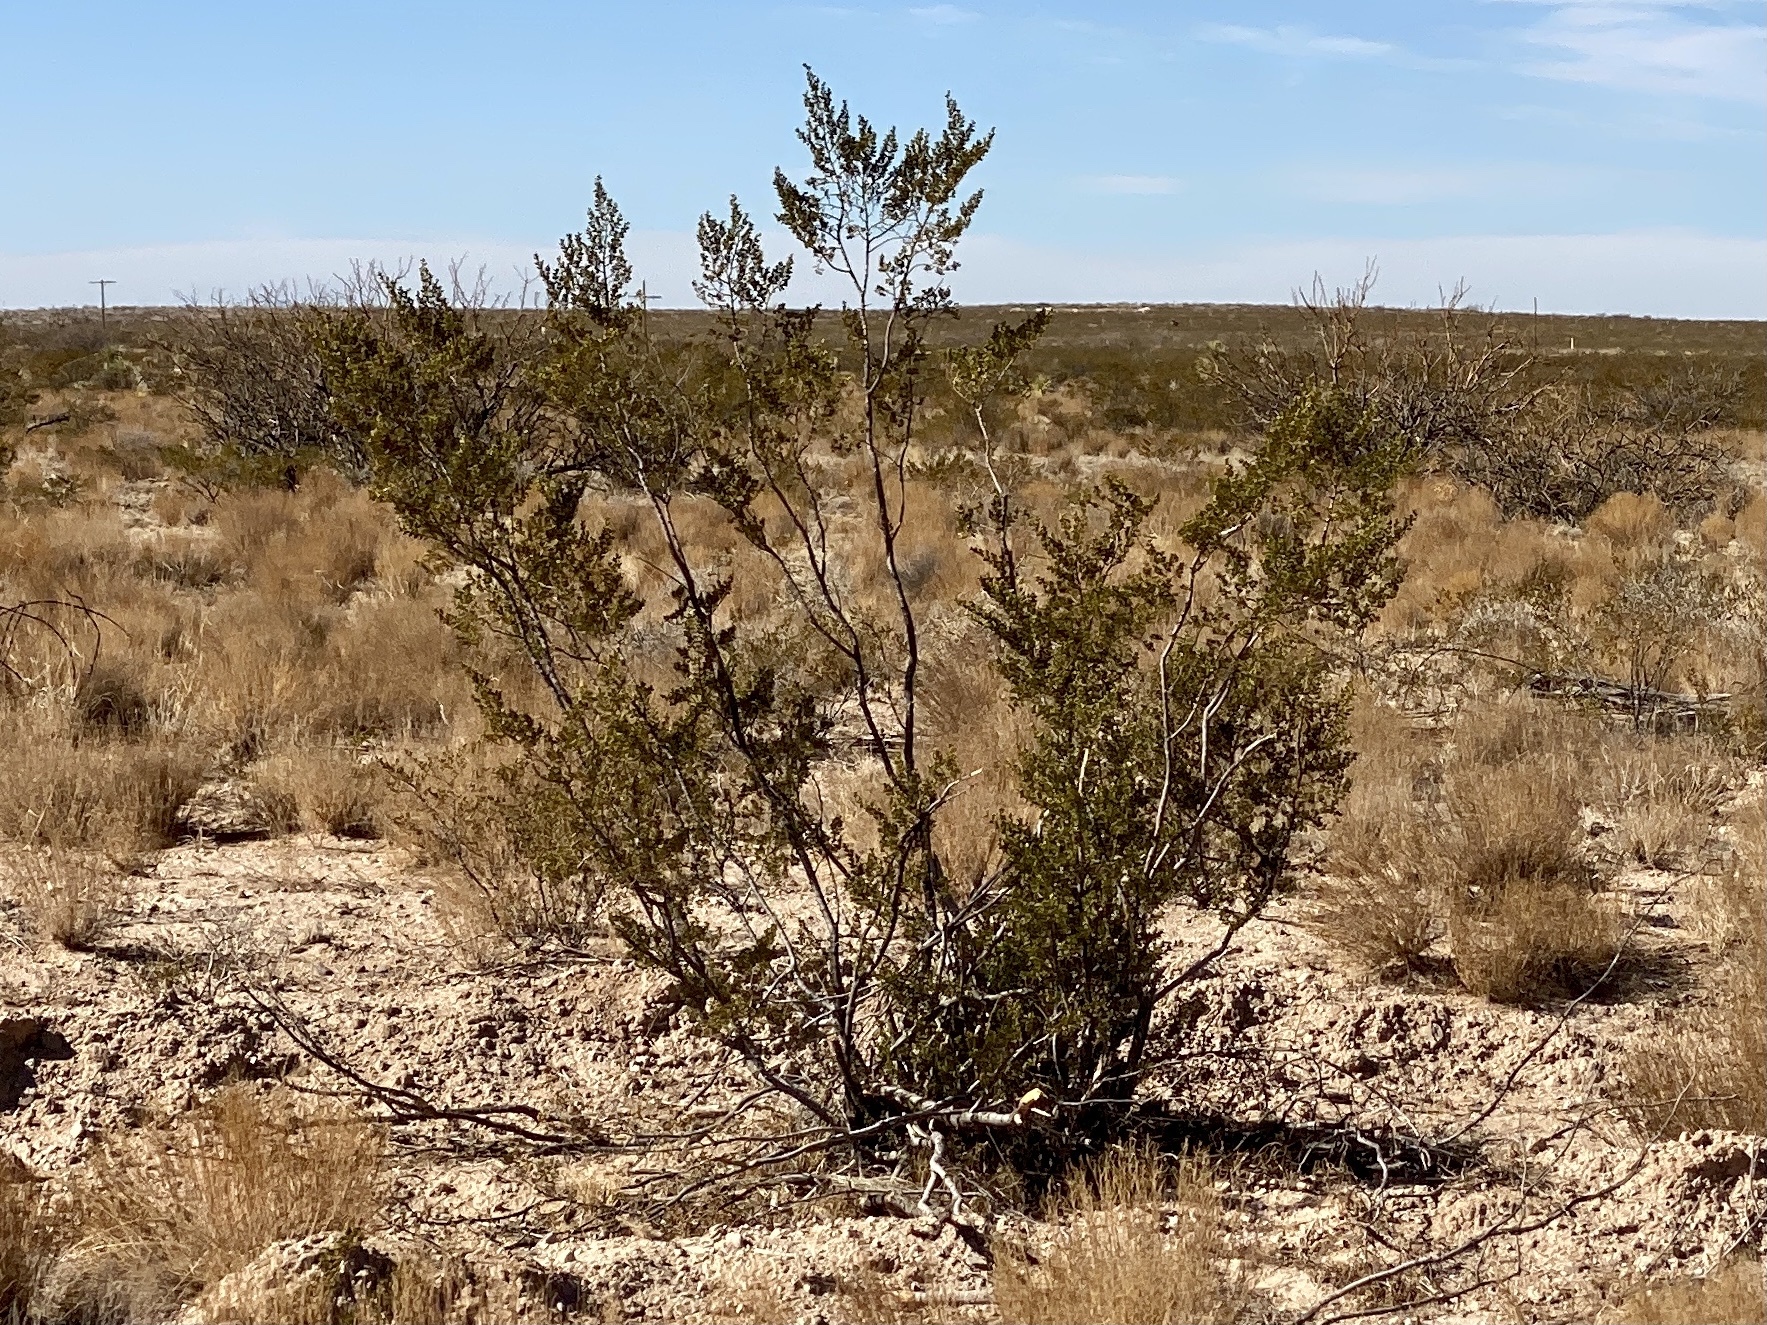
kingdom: Plantae
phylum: Tracheophyta
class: Magnoliopsida
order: Zygophyllales
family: Zygophyllaceae
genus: Larrea
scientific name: Larrea tridentata
